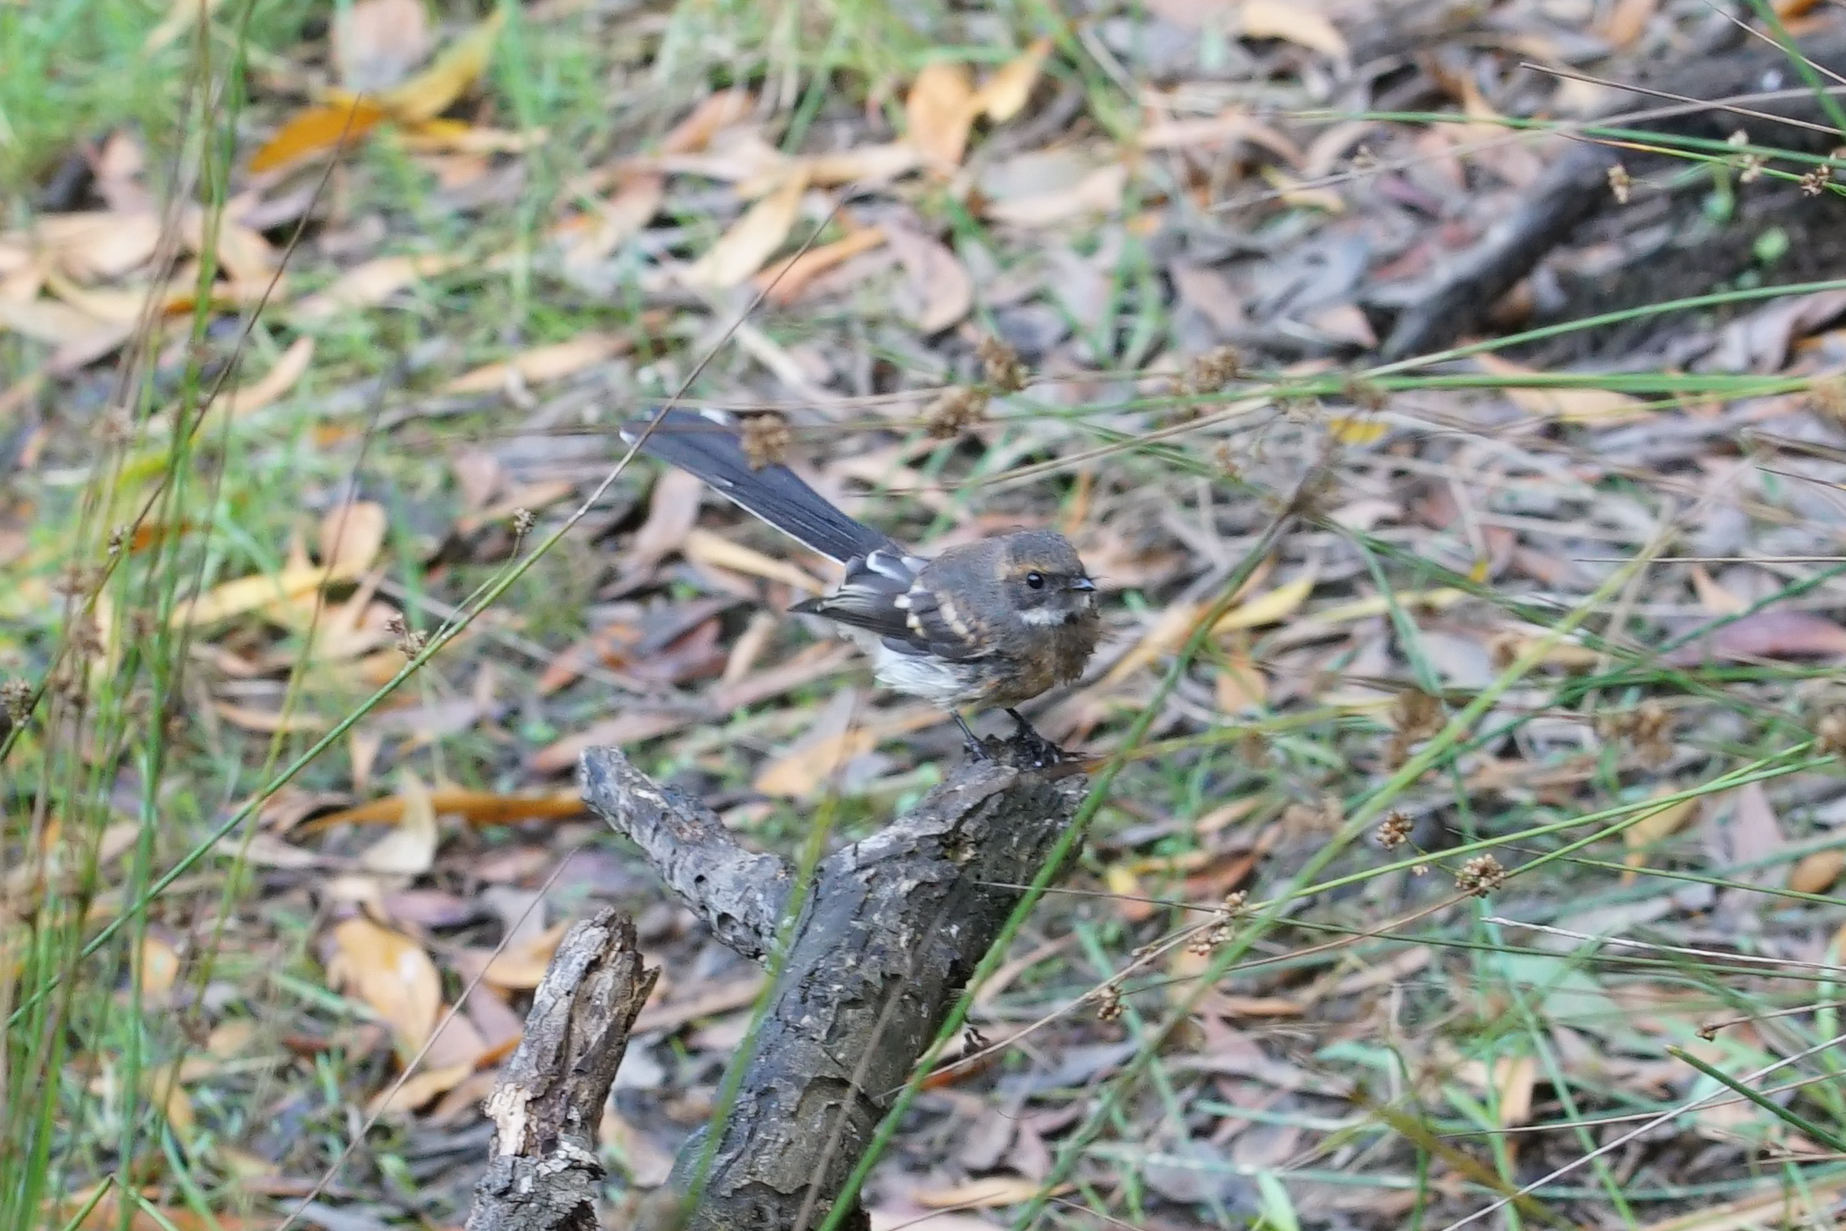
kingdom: Animalia
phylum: Chordata
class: Aves
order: Passeriformes
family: Rhipiduridae
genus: Rhipidura
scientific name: Rhipidura albiscapa
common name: Grey fantail
